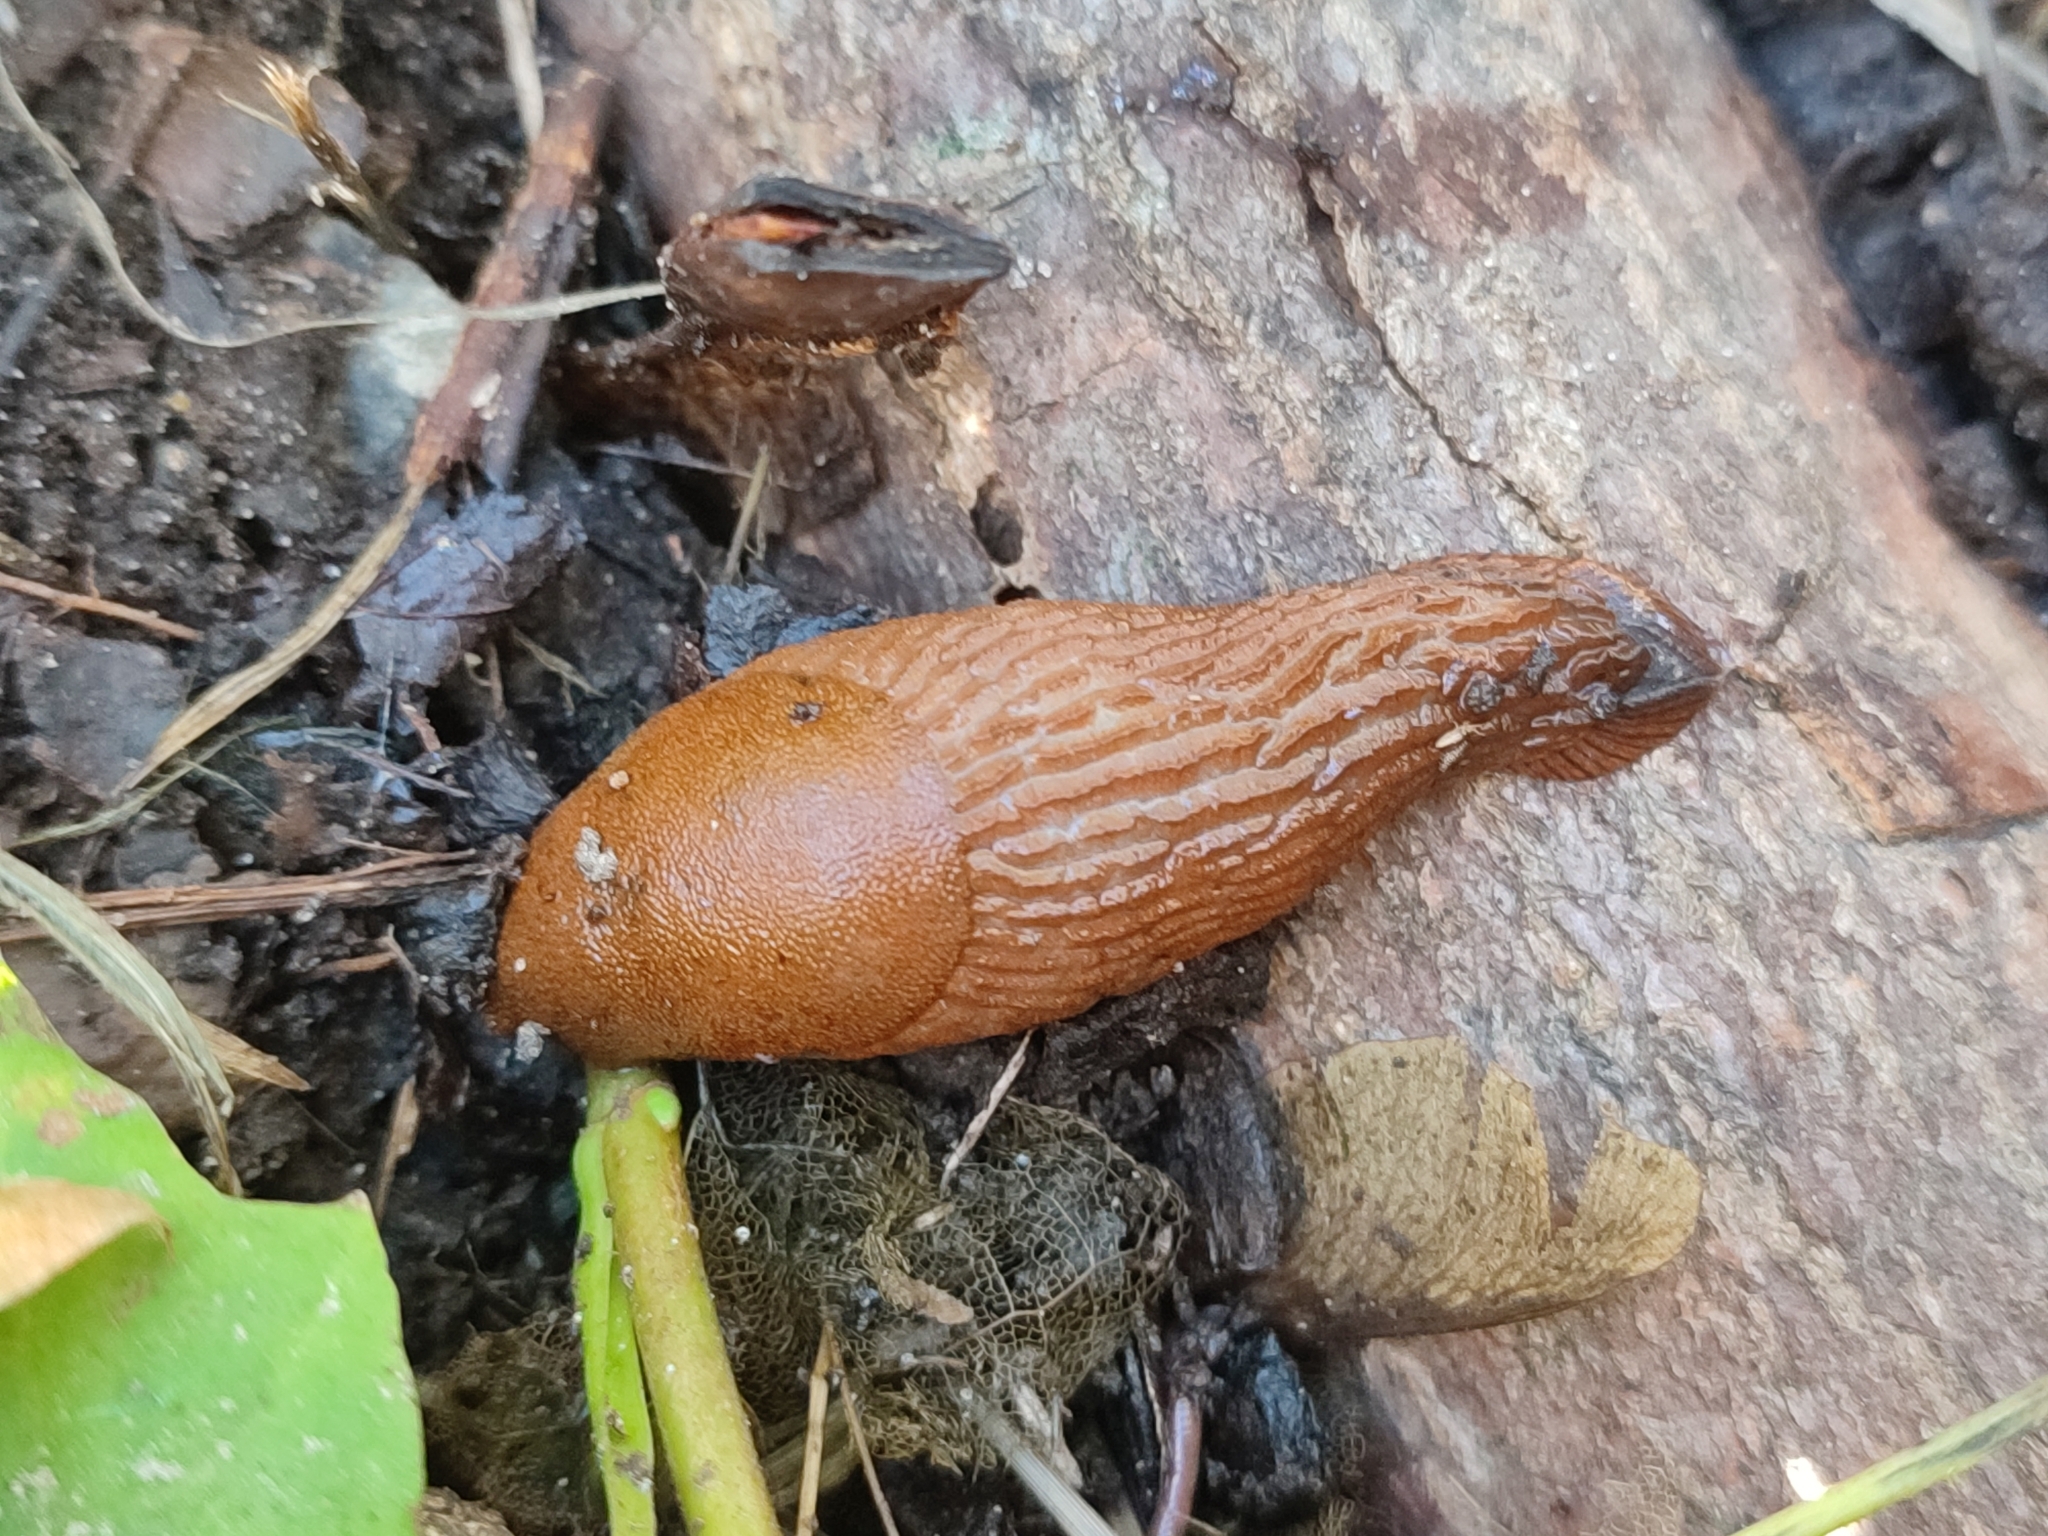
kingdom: Animalia
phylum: Mollusca
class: Gastropoda
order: Stylommatophora
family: Arionidae
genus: Arion
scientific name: Arion vulgaris
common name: Lusitanian slug
